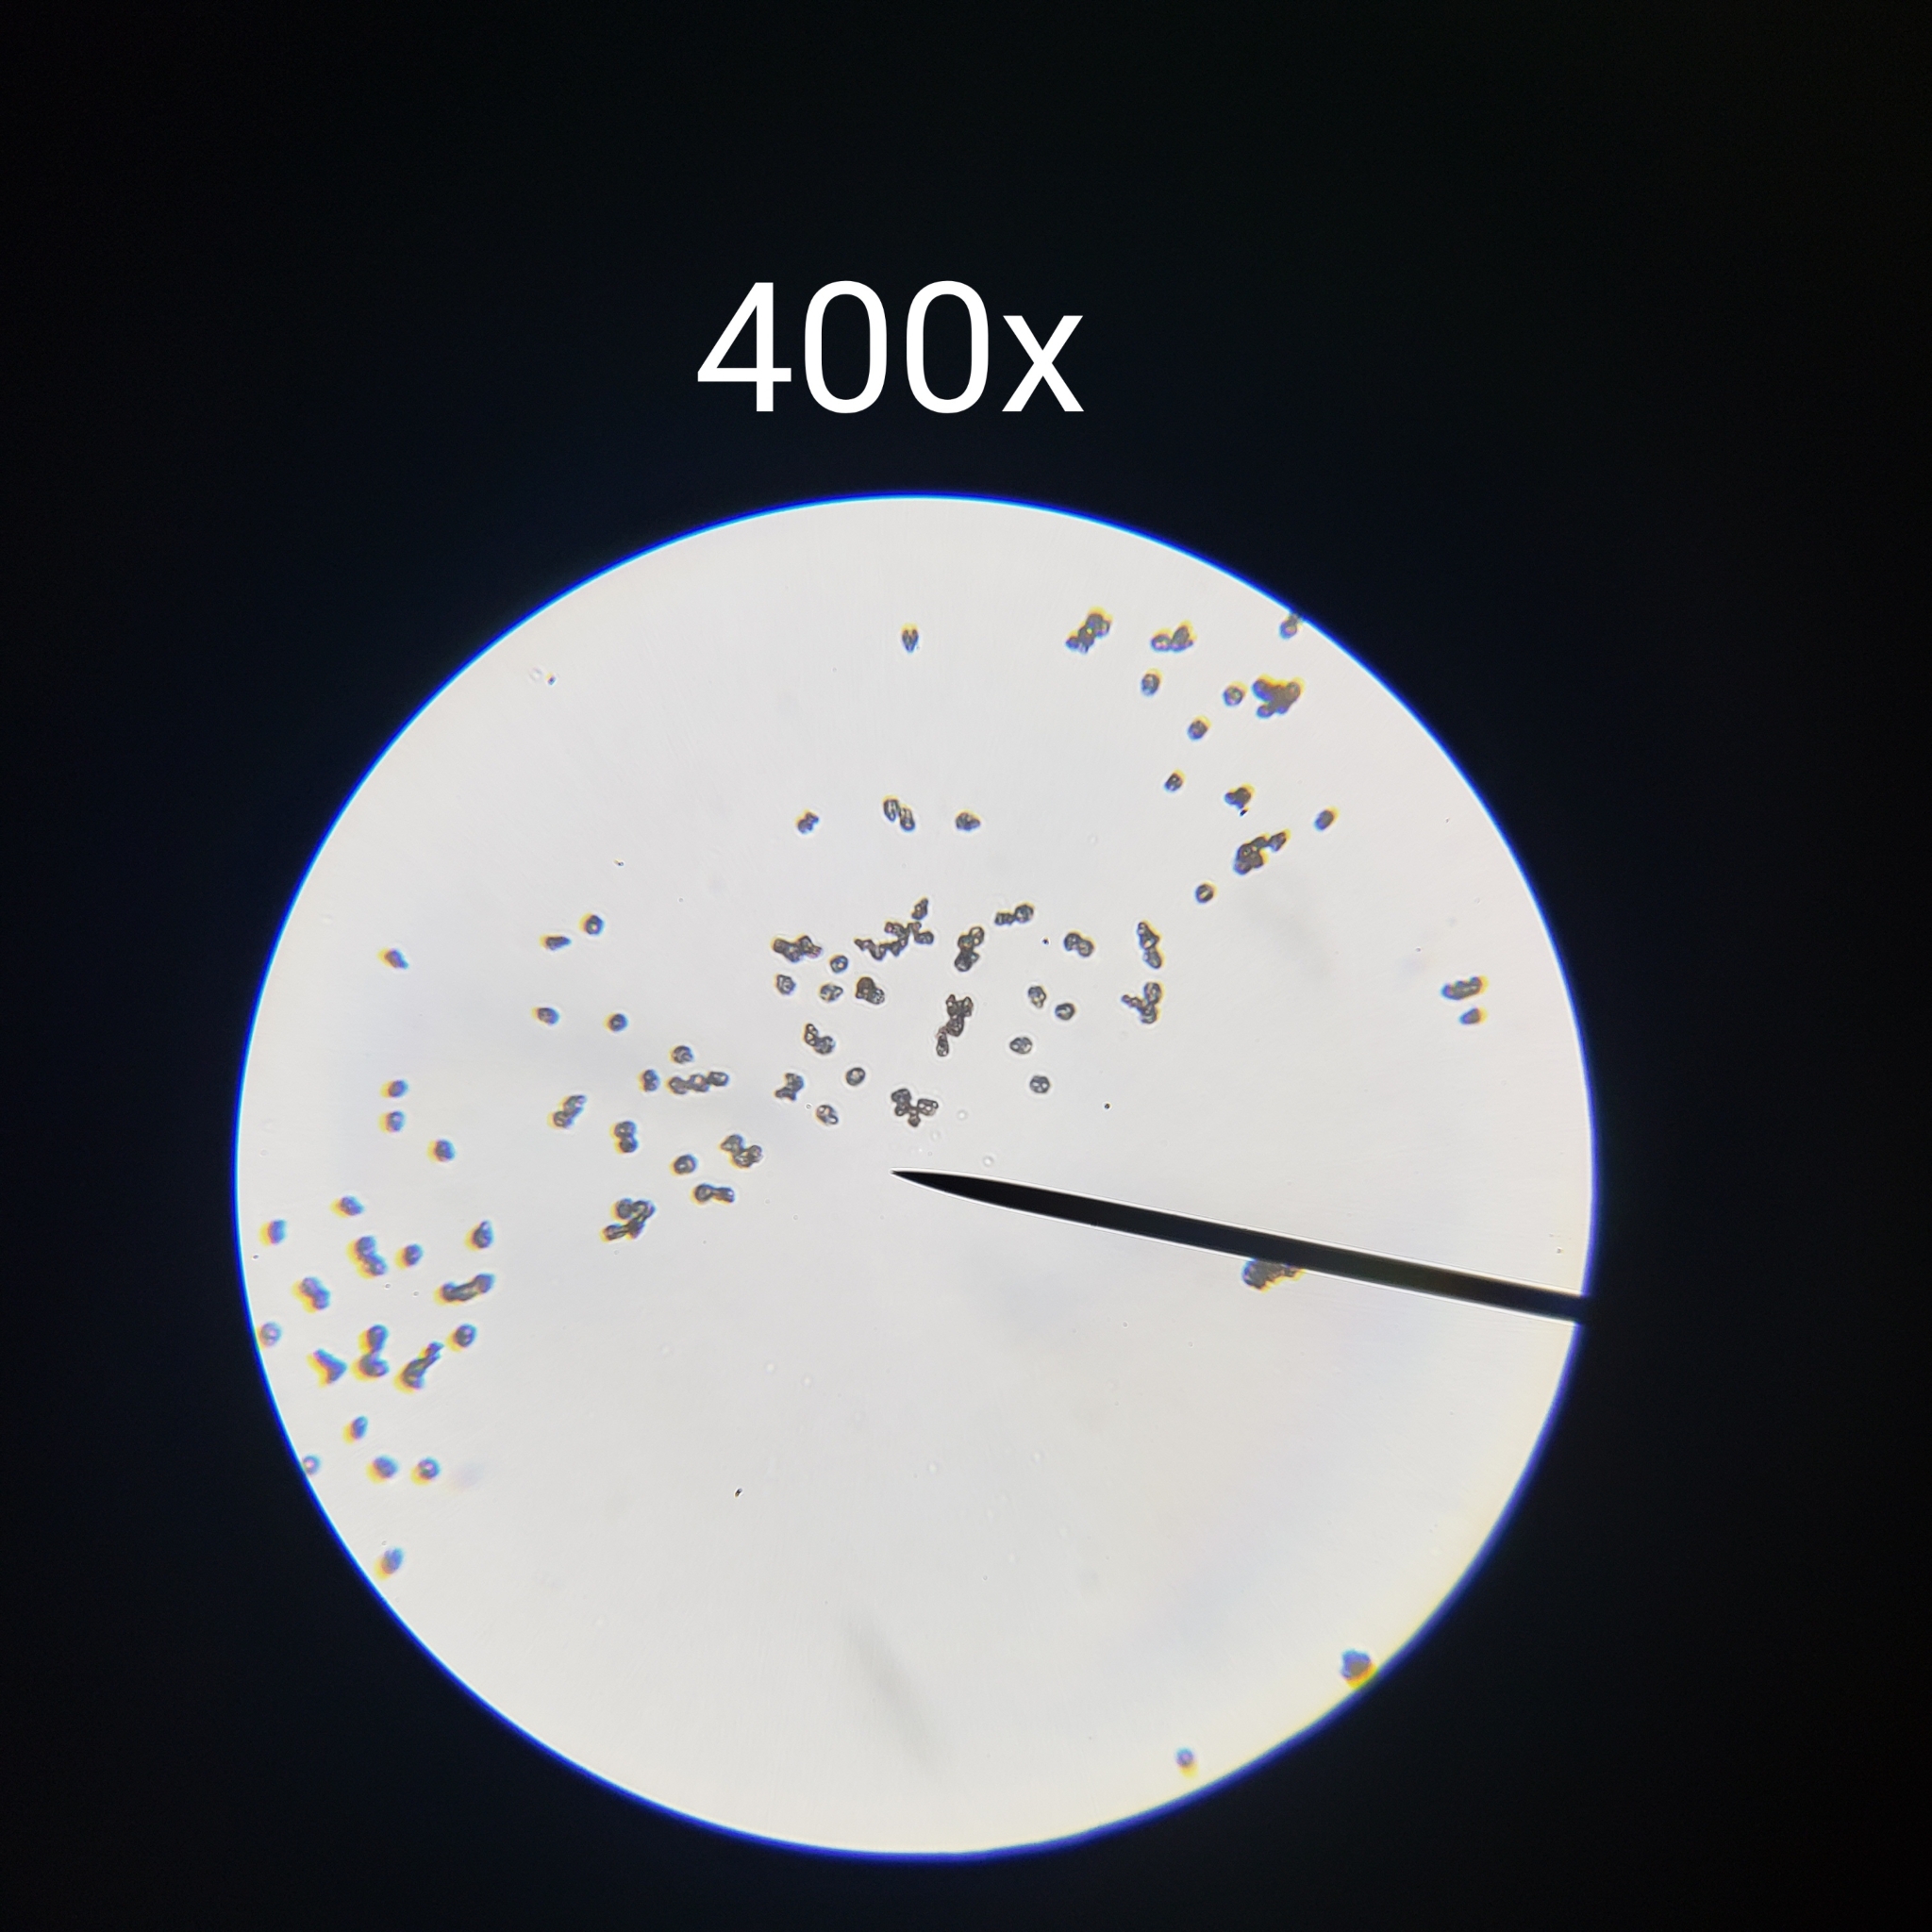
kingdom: Fungi
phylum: Basidiomycota
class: Agaricomycetes
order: Agaricales
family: Inocybaceae
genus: Inocybe
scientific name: Inocybe velicopia
